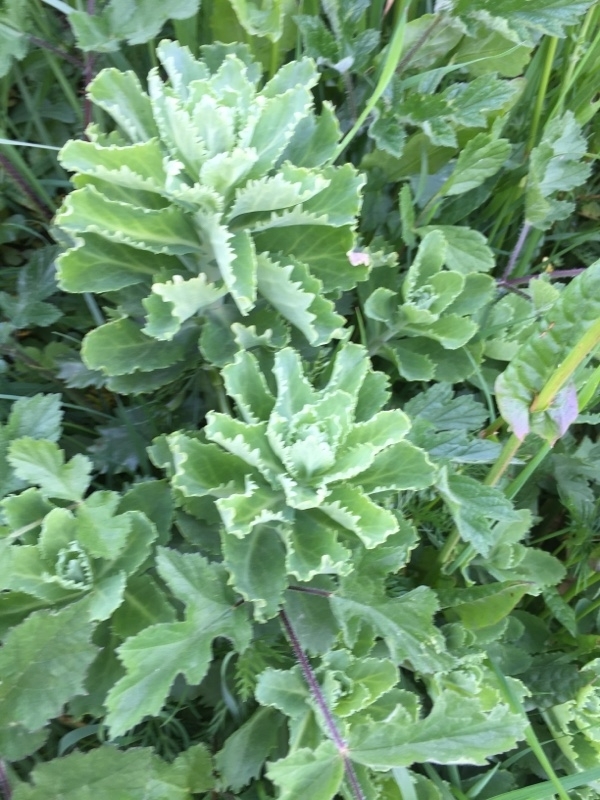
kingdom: Plantae
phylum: Tracheophyta
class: Magnoliopsida
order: Saxifragales
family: Crassulaceae
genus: Hylotelephium
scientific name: Hylotelephium telephium
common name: Live-forever
